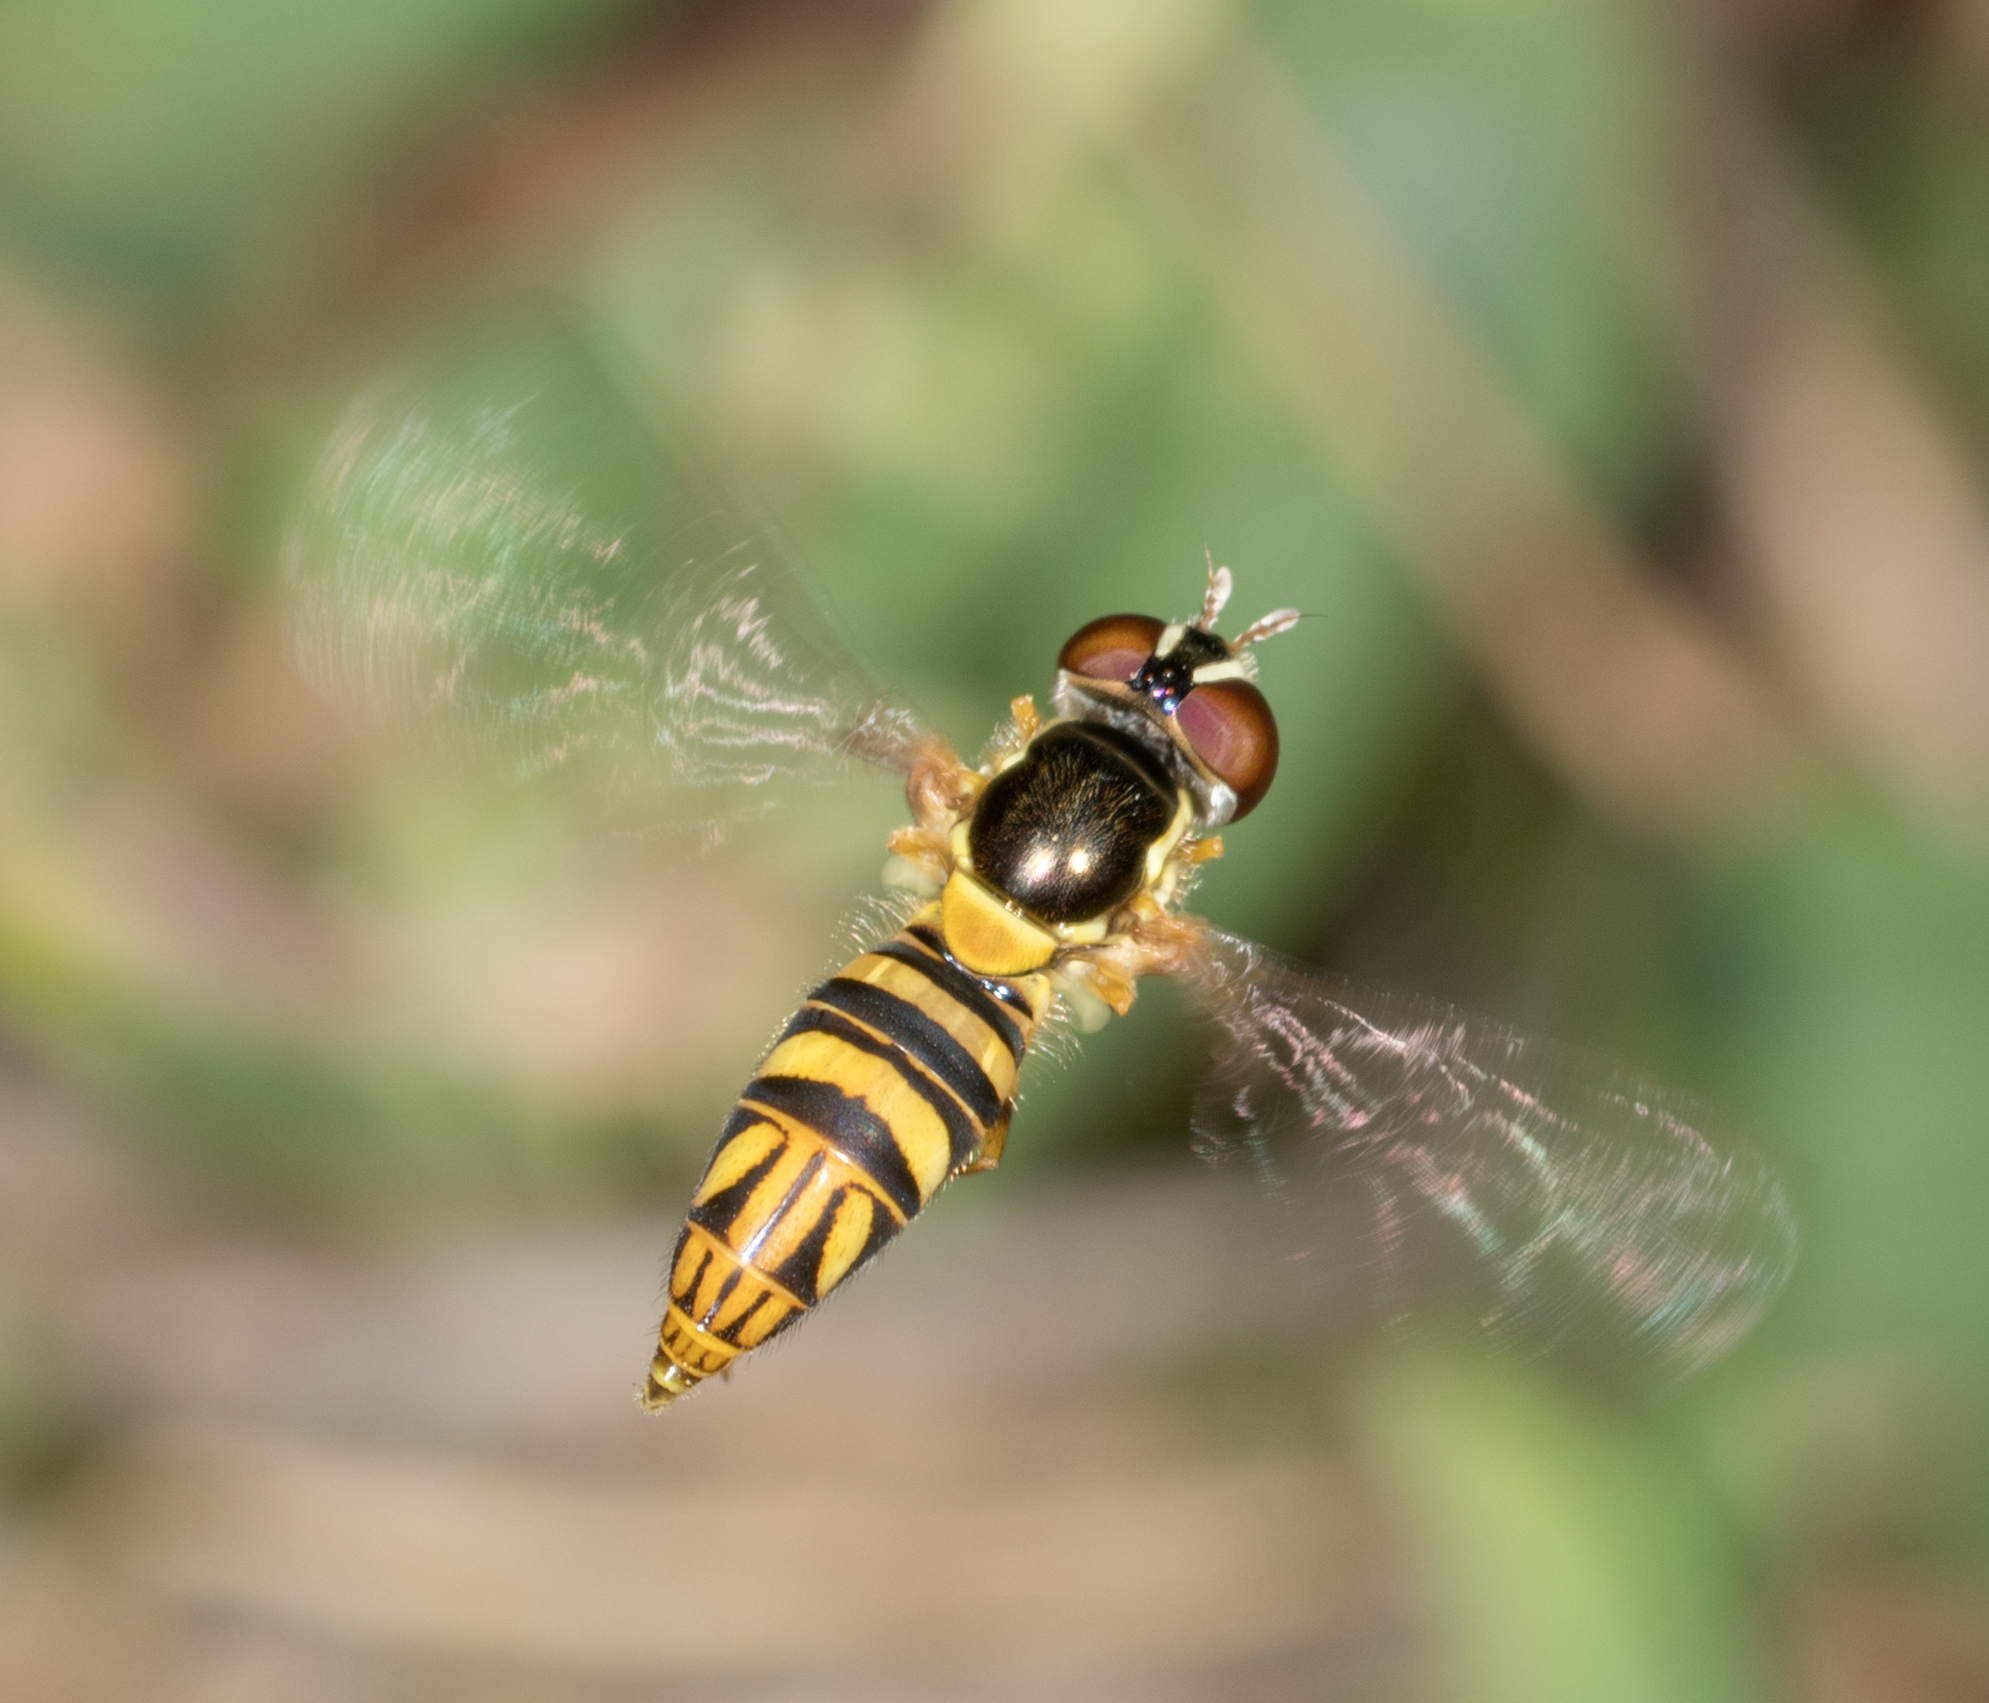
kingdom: Animalia
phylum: Arthropoda
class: Insecta
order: Diptera
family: Syrphidae
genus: Allograpta
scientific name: Allograpta obliqua
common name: Common oblique syrphid
